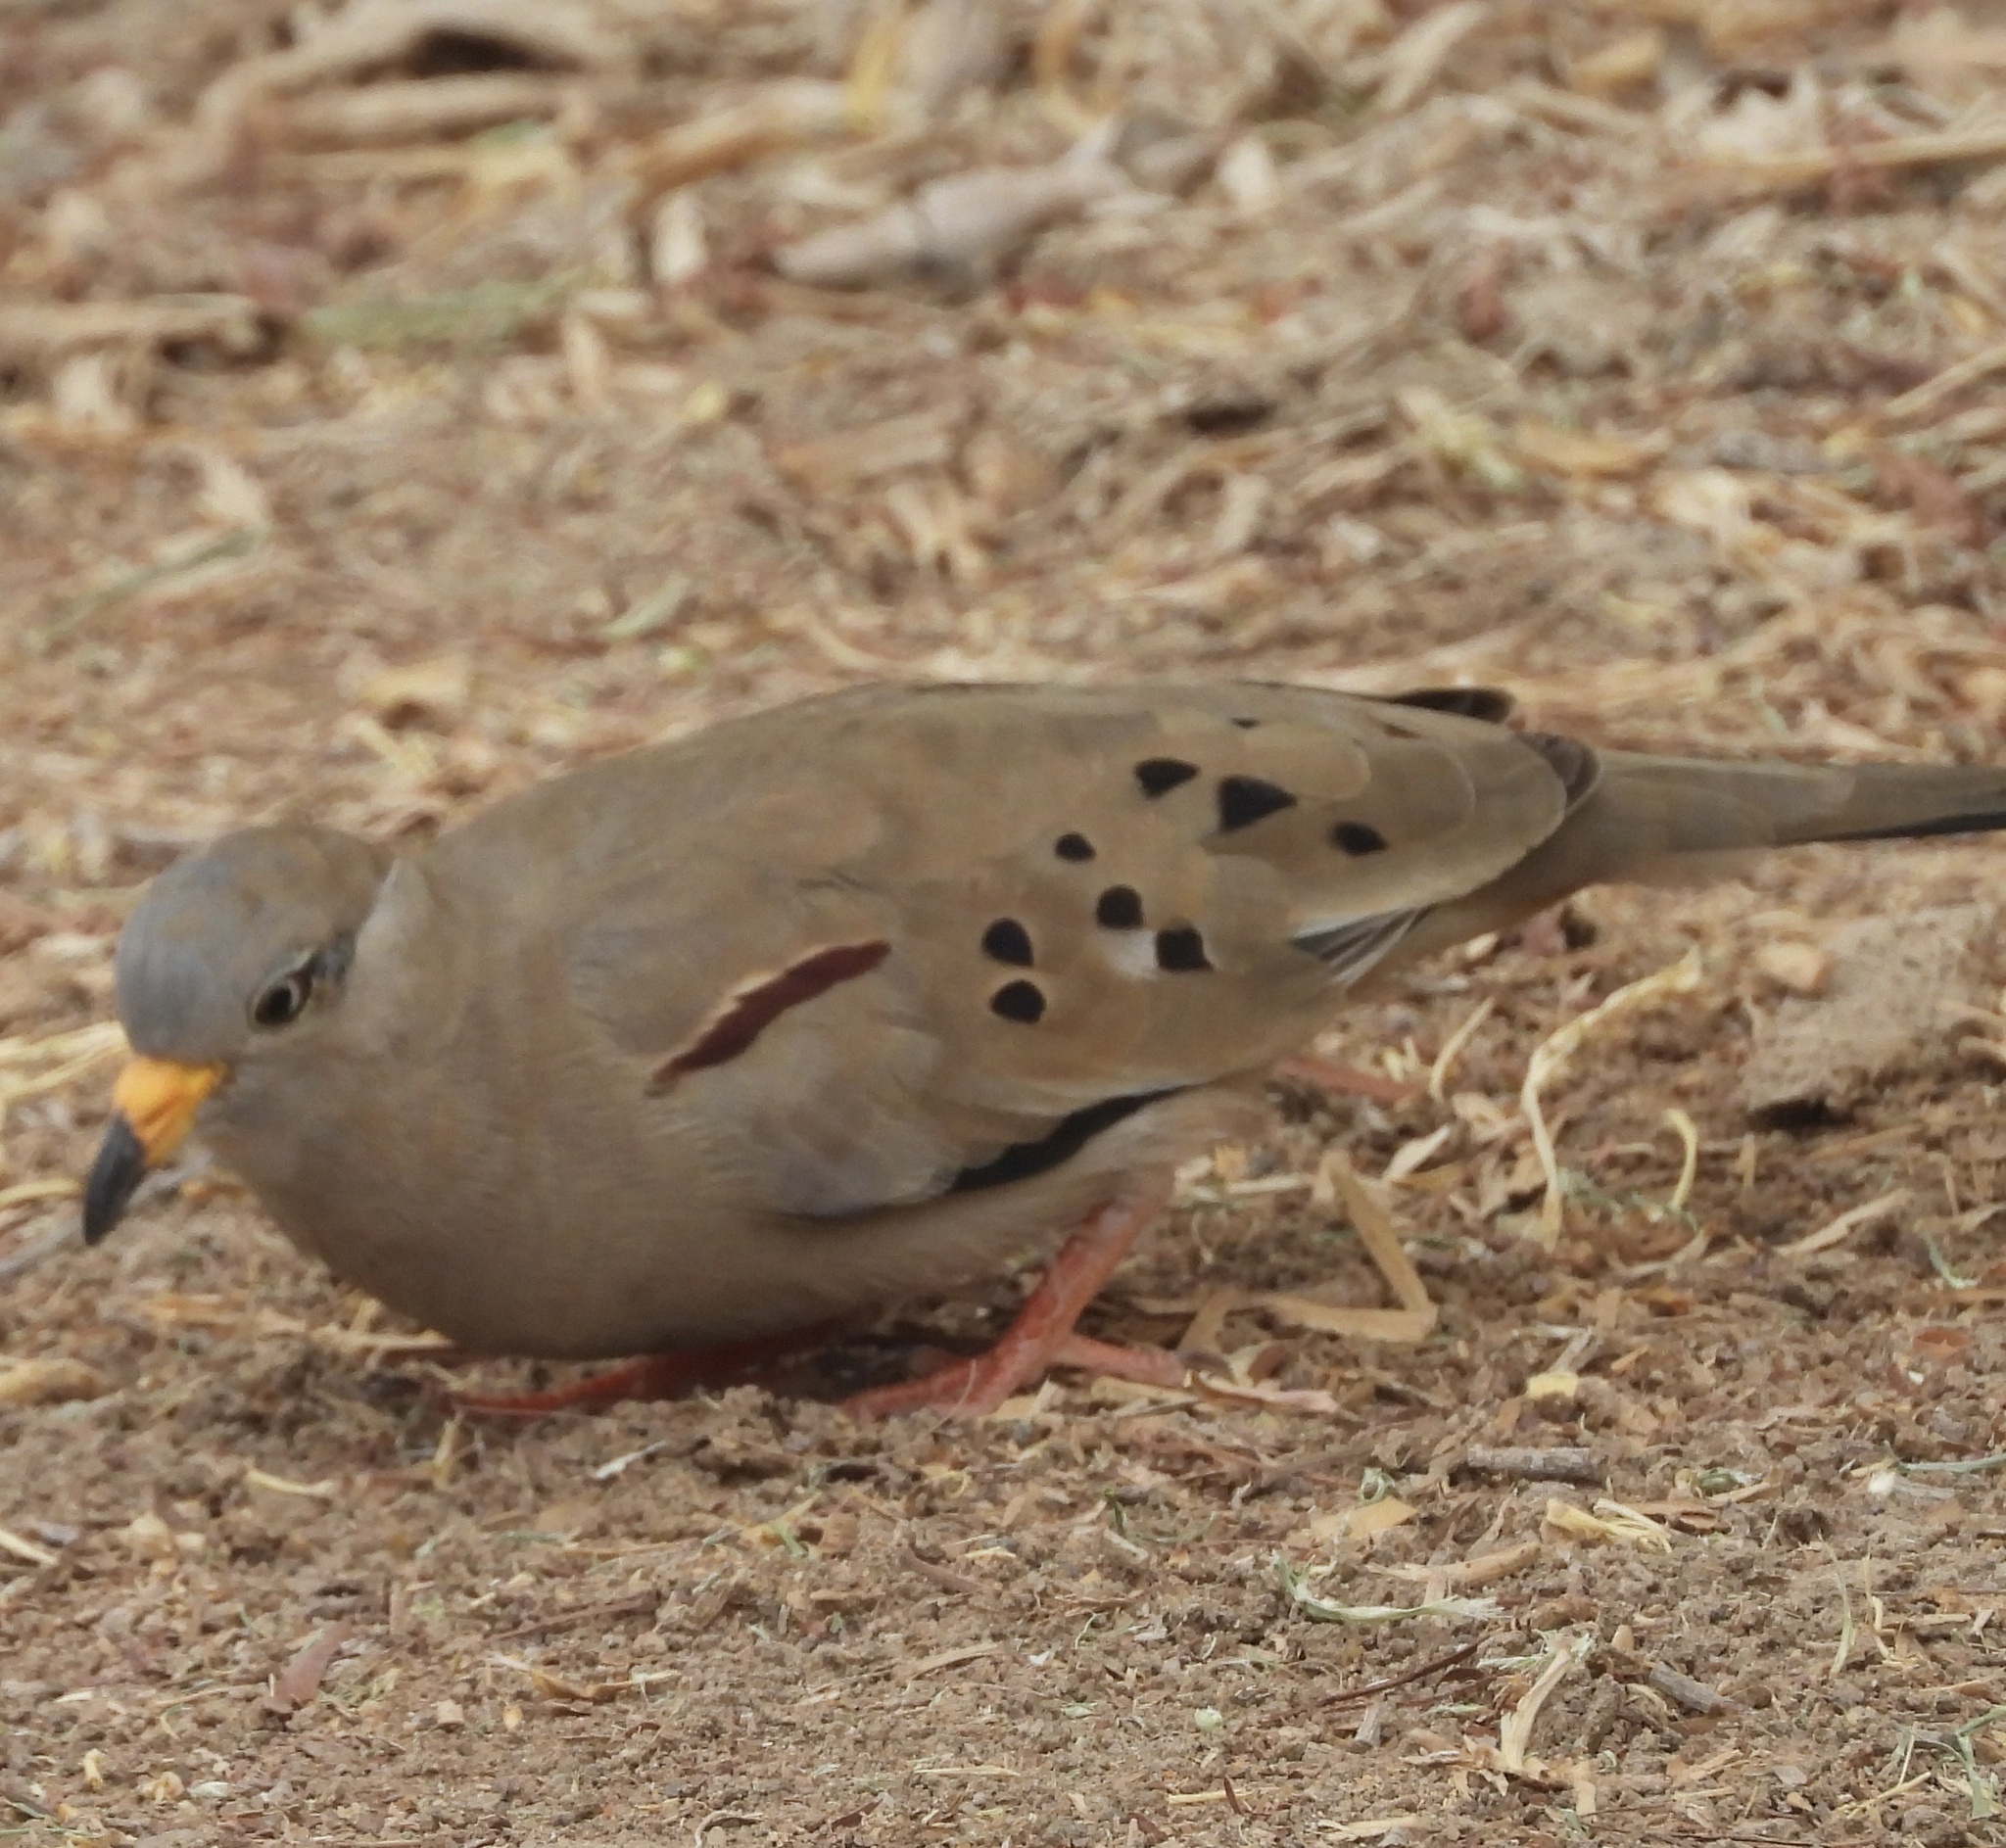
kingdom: Animalia
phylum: Chordata
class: Aves
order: Columbiformes
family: Columbidae
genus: Columbina
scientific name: Columbina cruziana
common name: Croaking ground dove
